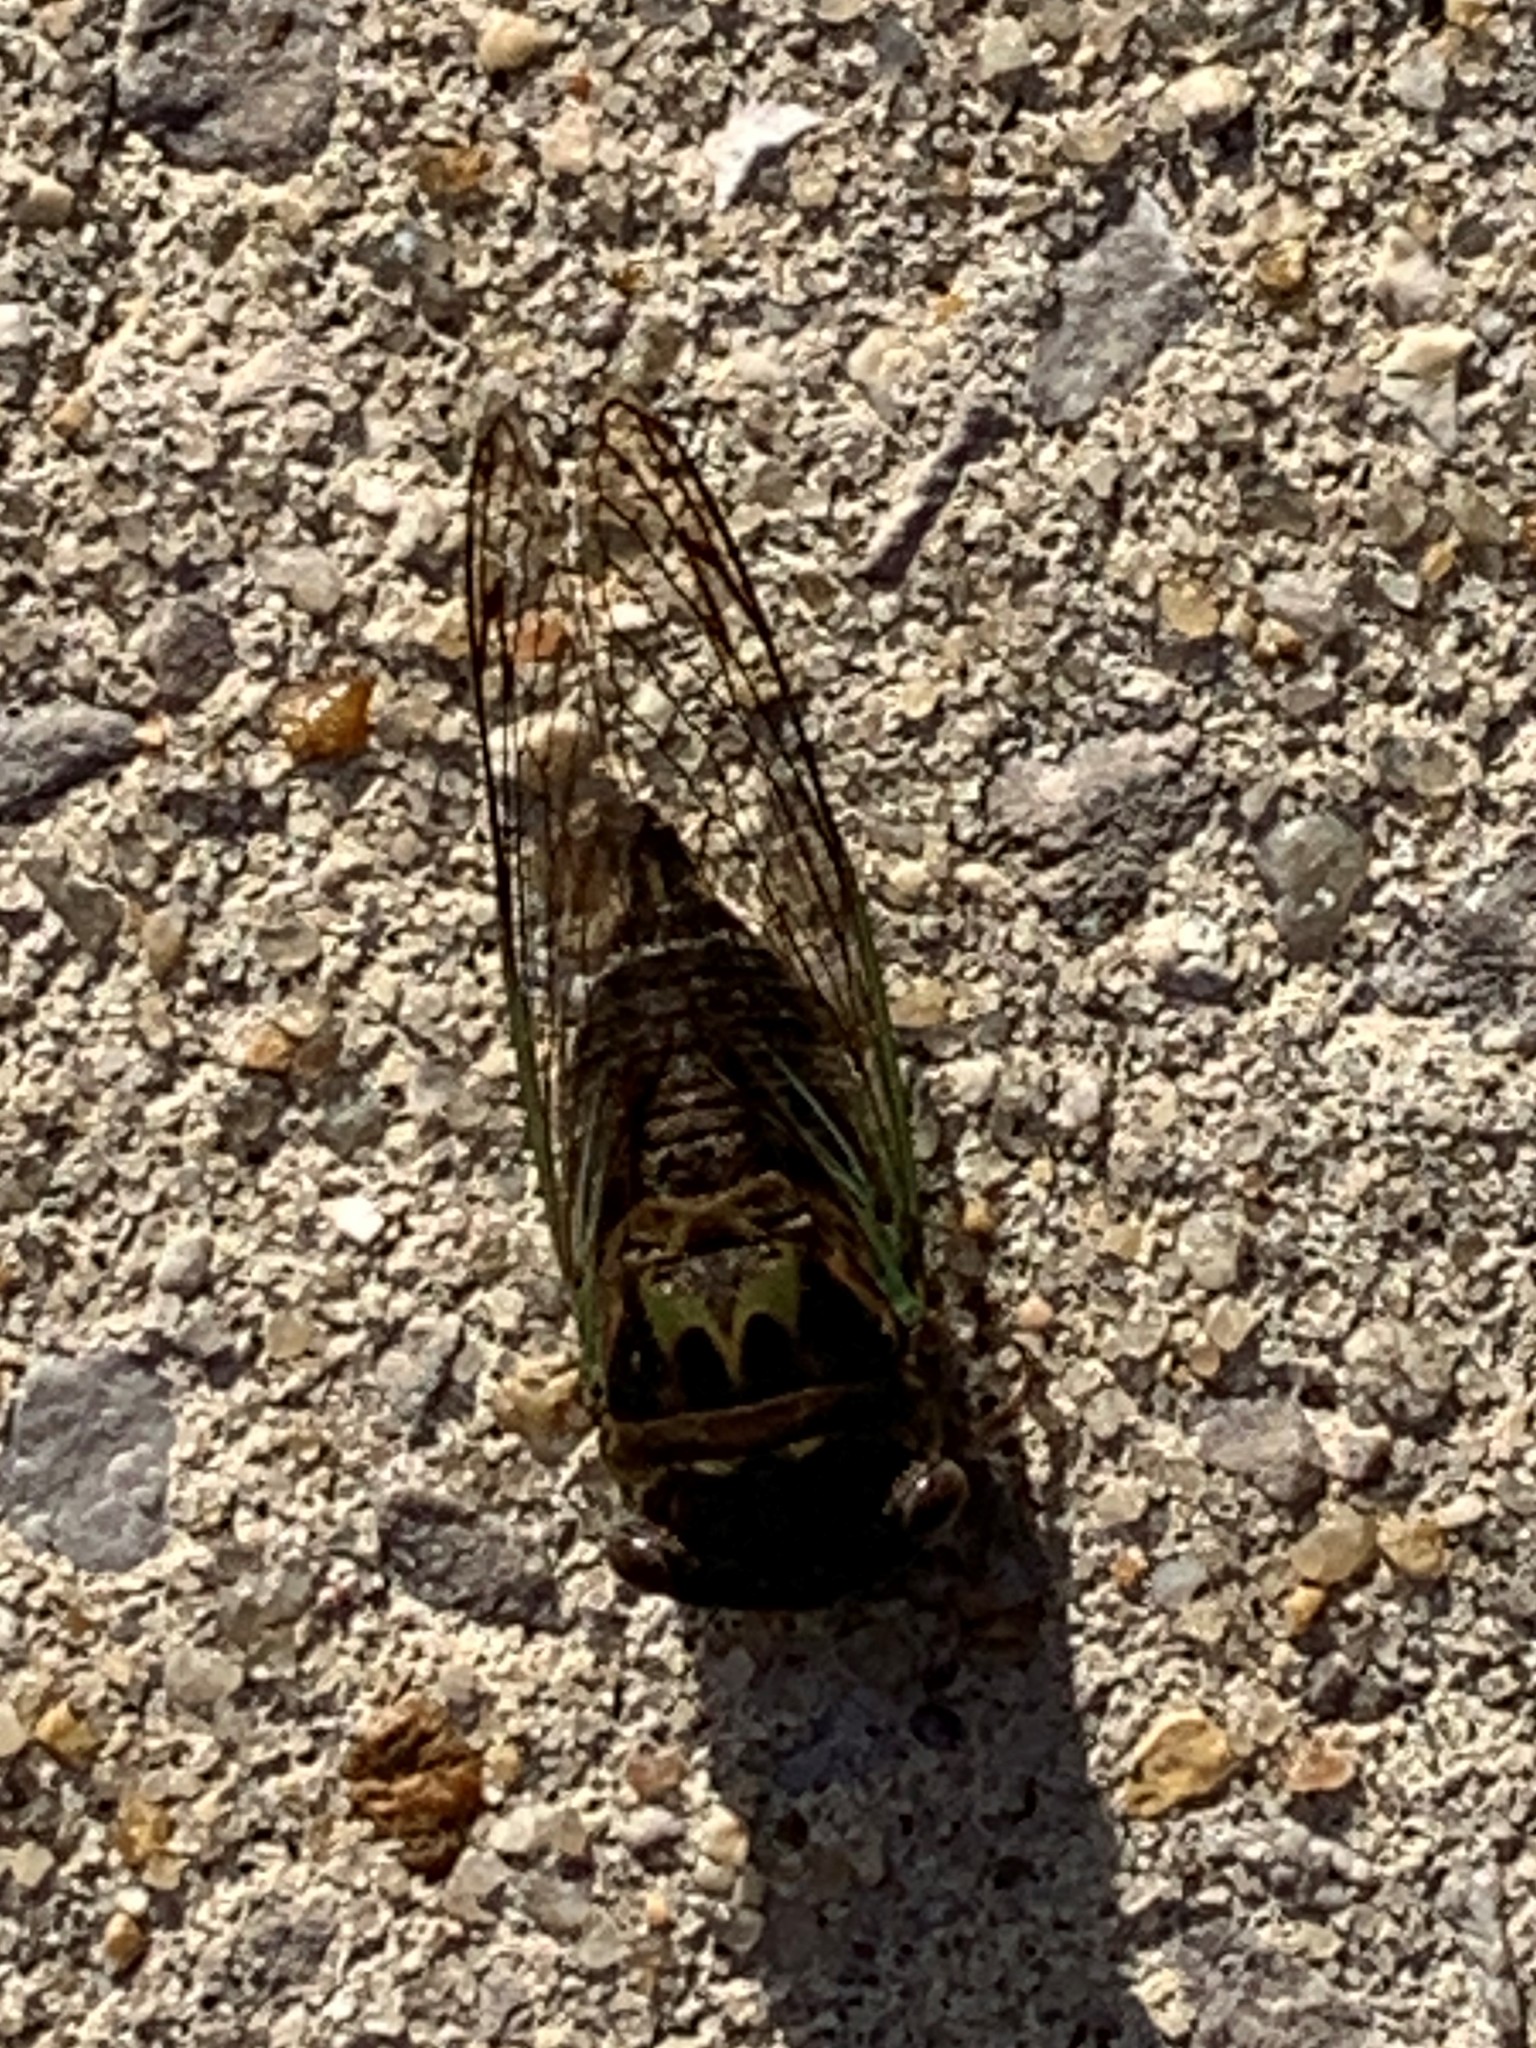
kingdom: Animalia
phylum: Arthropoda
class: Insecta
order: Hemiptera
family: Cicadidae
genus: Neotibicen
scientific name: Neotibicen davisi
